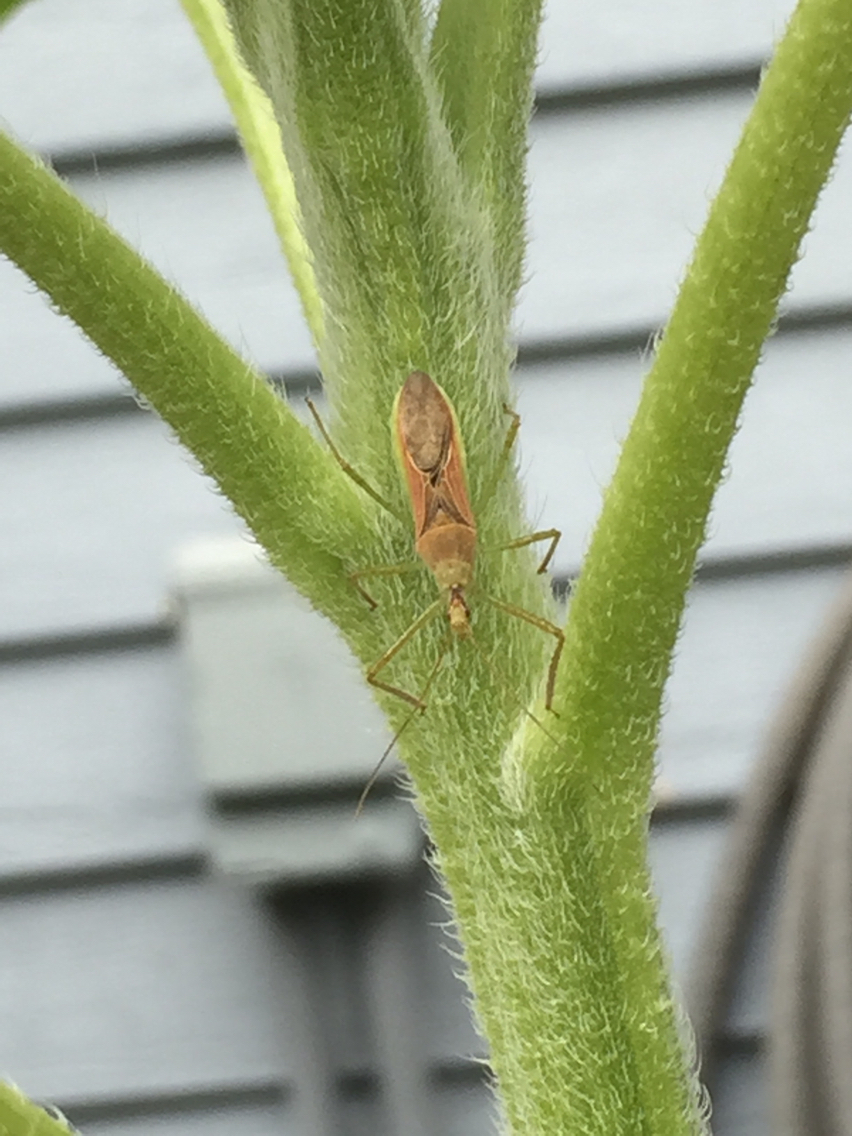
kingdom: Animalia
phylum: Arthropoda
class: Insecta
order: Hemiptera
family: Reduviidae
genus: Zelus
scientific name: Zelus renardii
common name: Assassin bug
